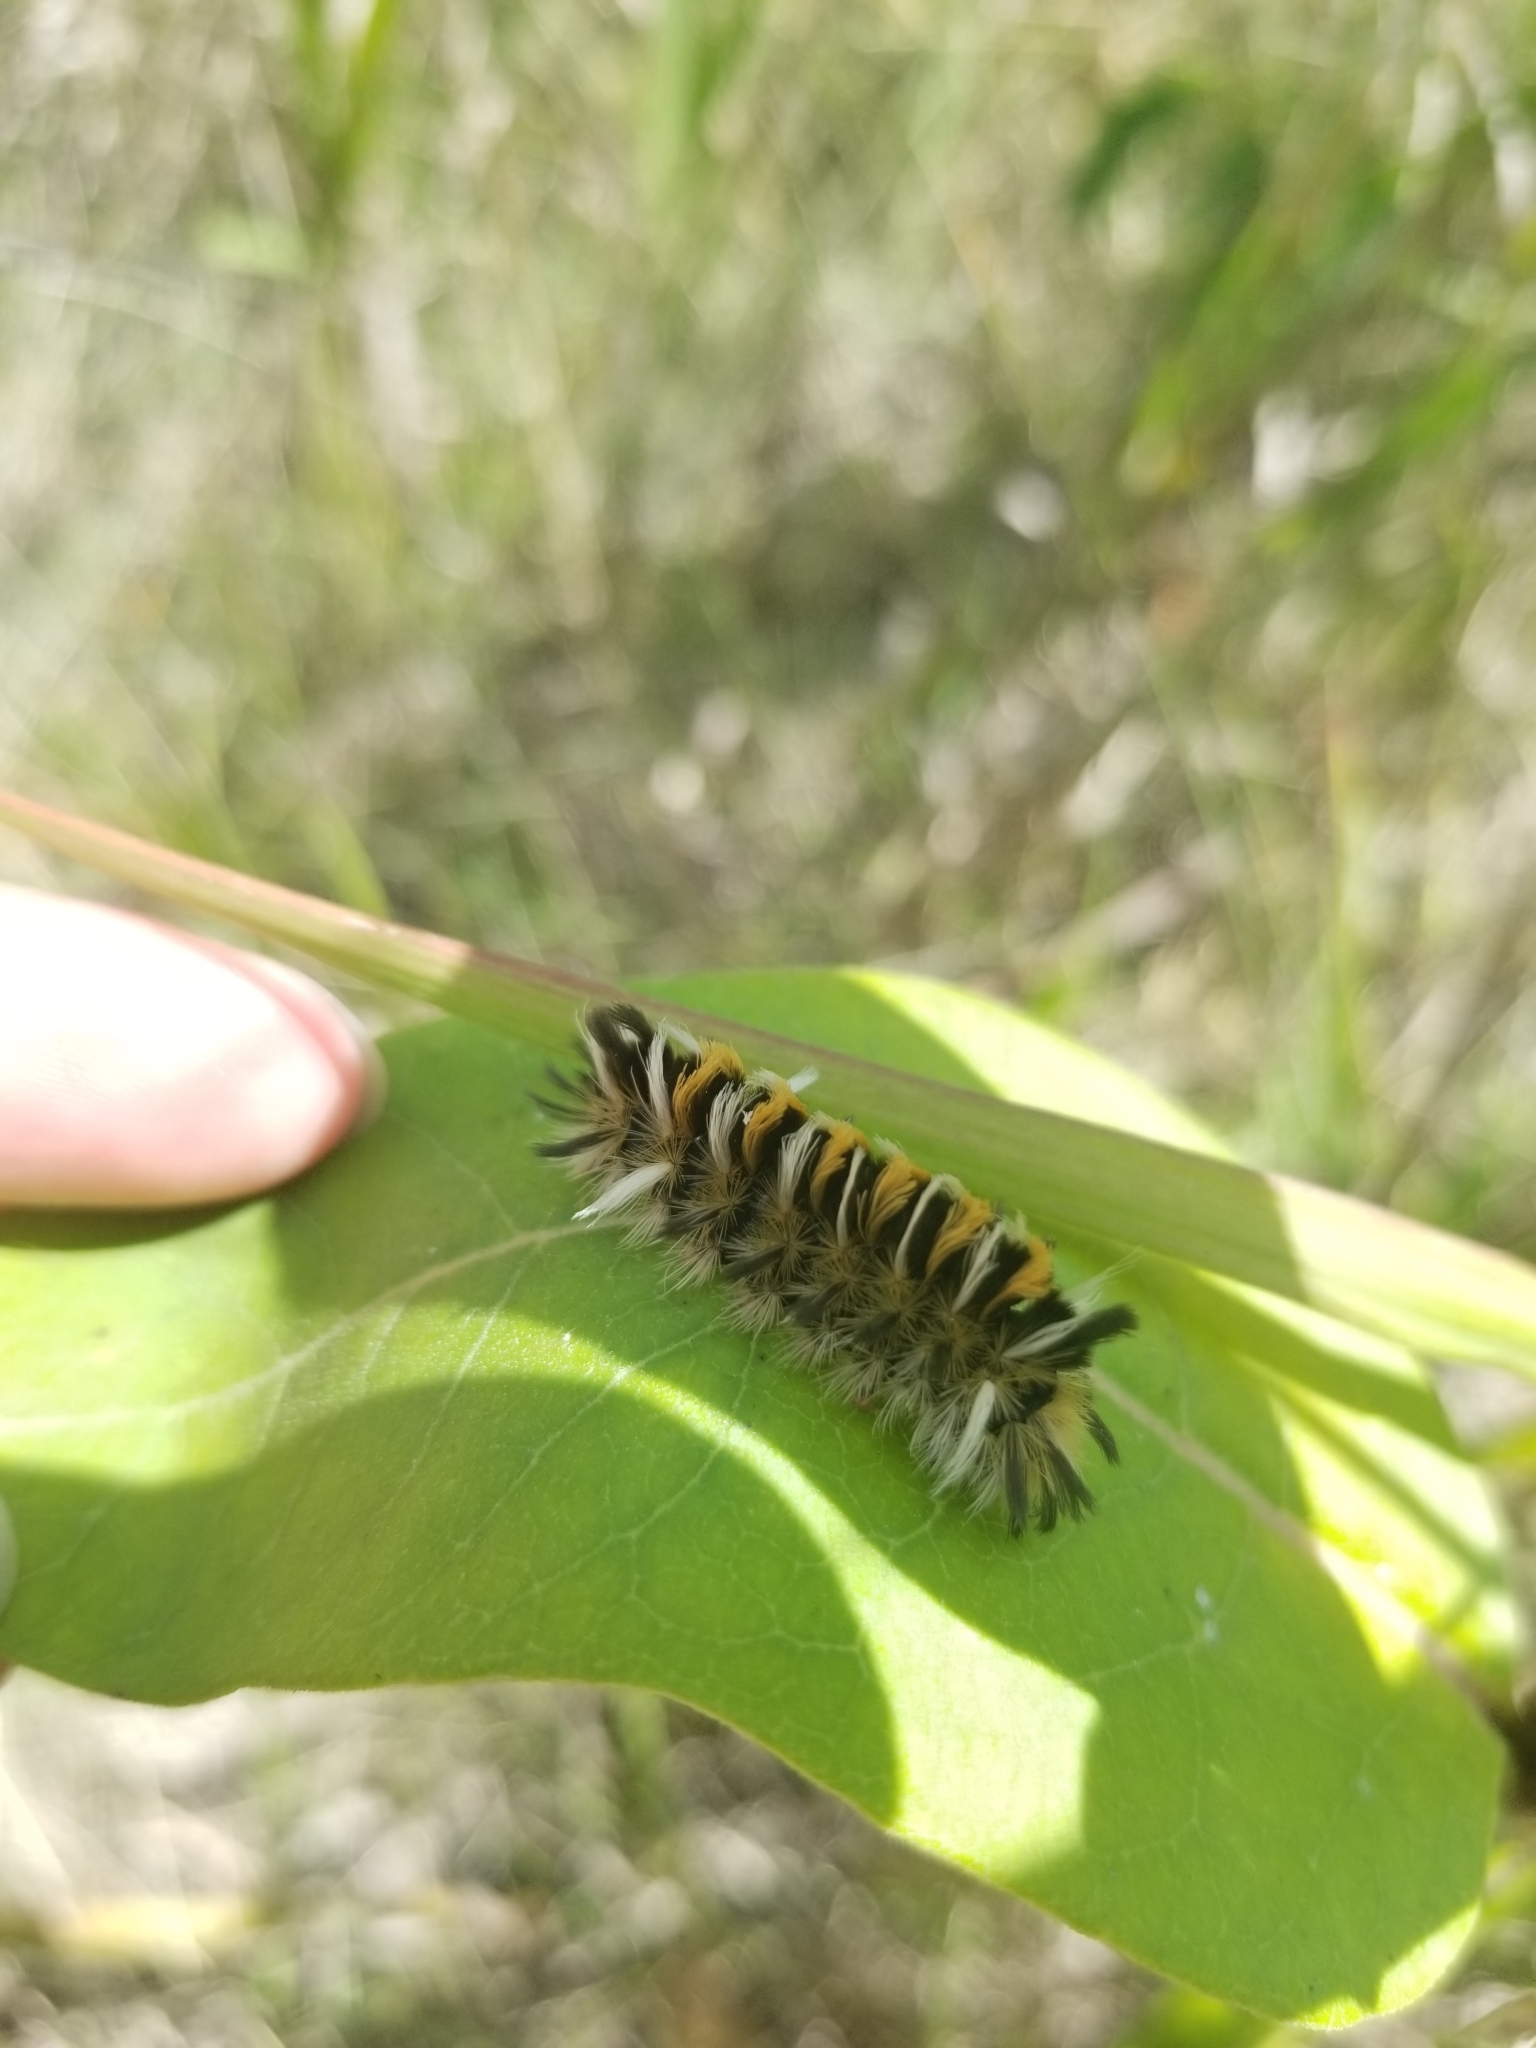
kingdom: Animalia
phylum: Arthropoda
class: Insecta
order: Lepidoptera
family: Erebidae
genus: Euchaetes
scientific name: Euchaetes egle
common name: Milkweed tussock moth
